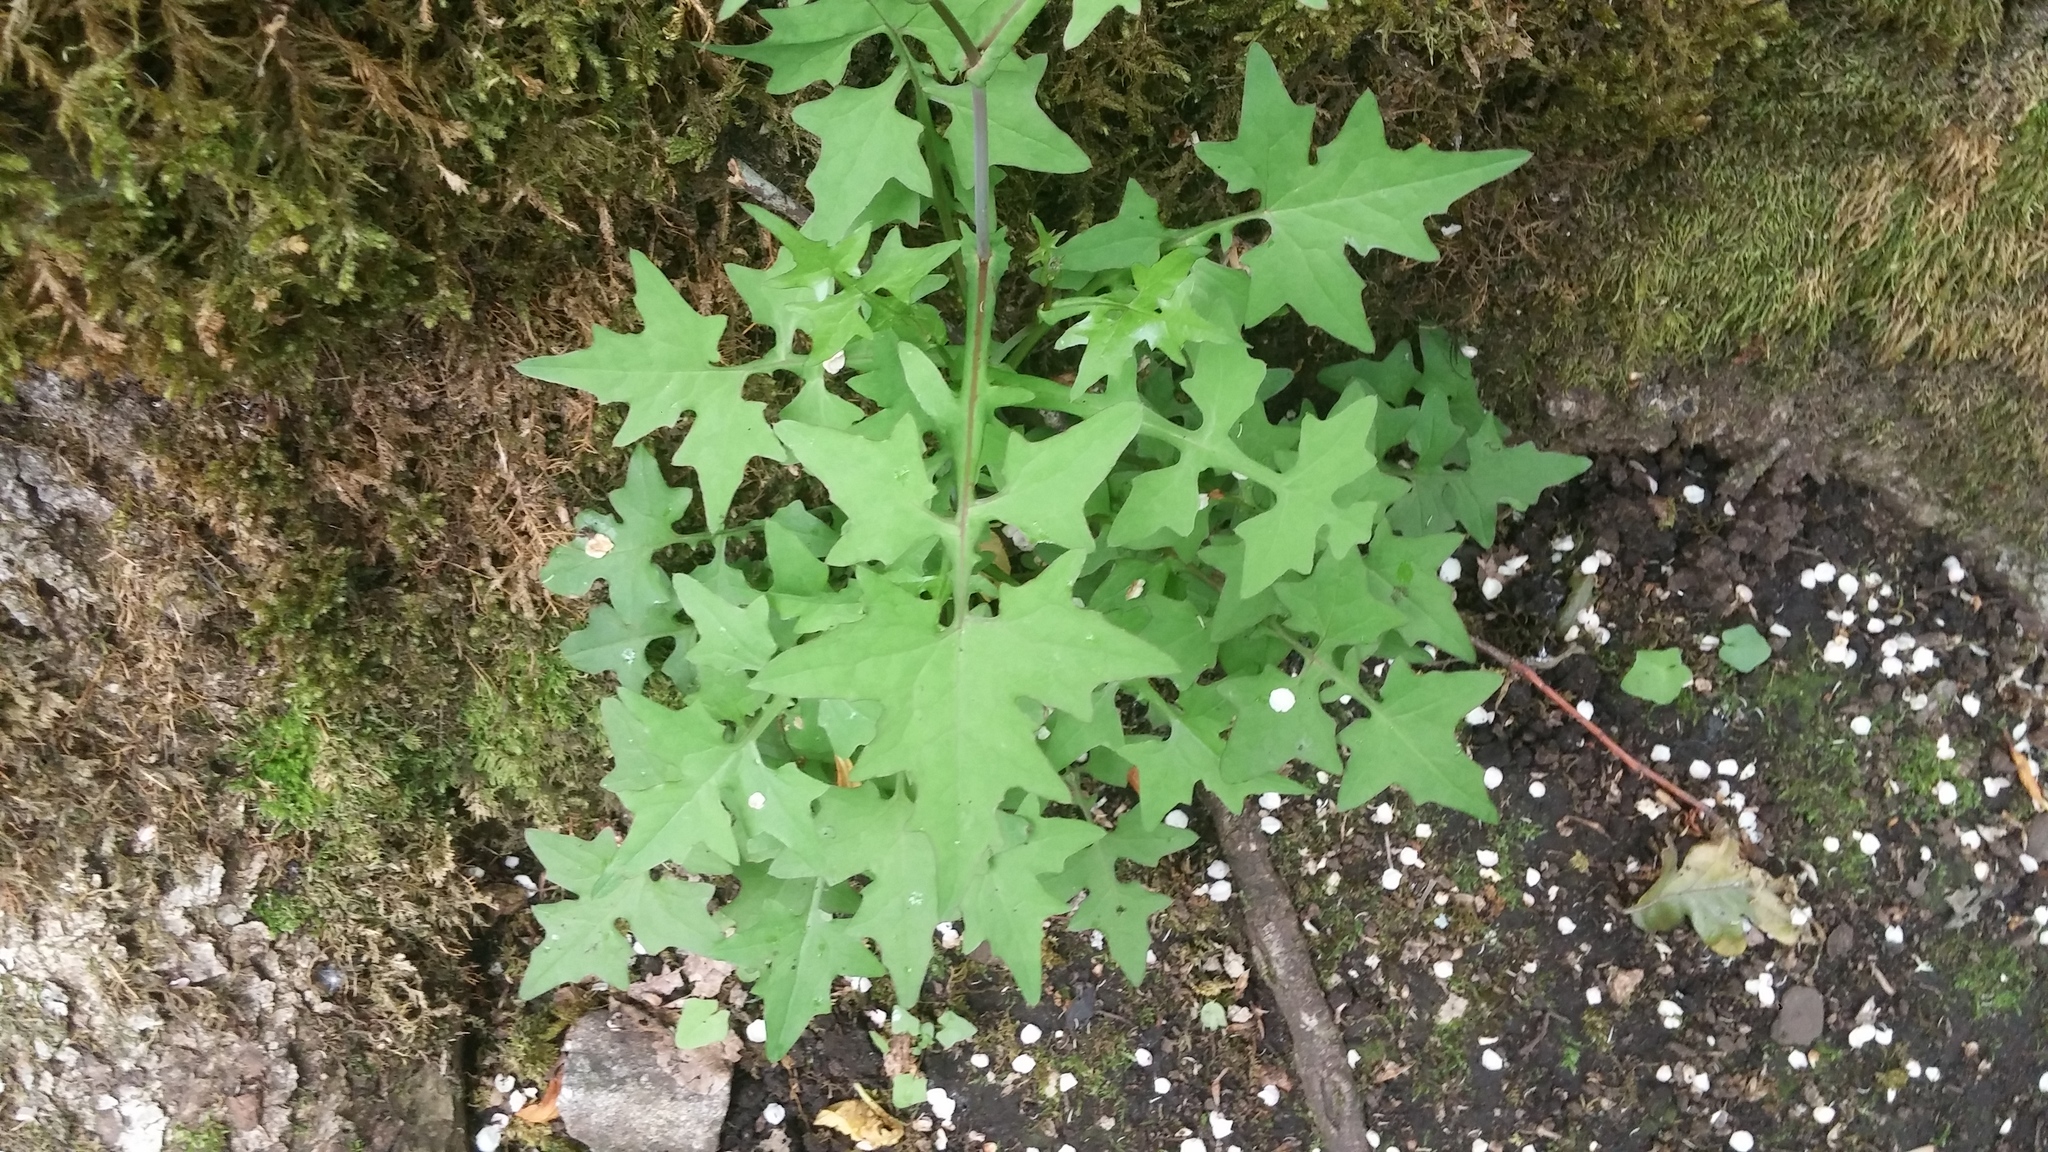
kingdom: Plantae
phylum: Tracheophyta
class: Magnoliopsida
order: Asterales
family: Asteraceae
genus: Mycelis
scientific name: Mycelis muralis
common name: Wall lettuce
